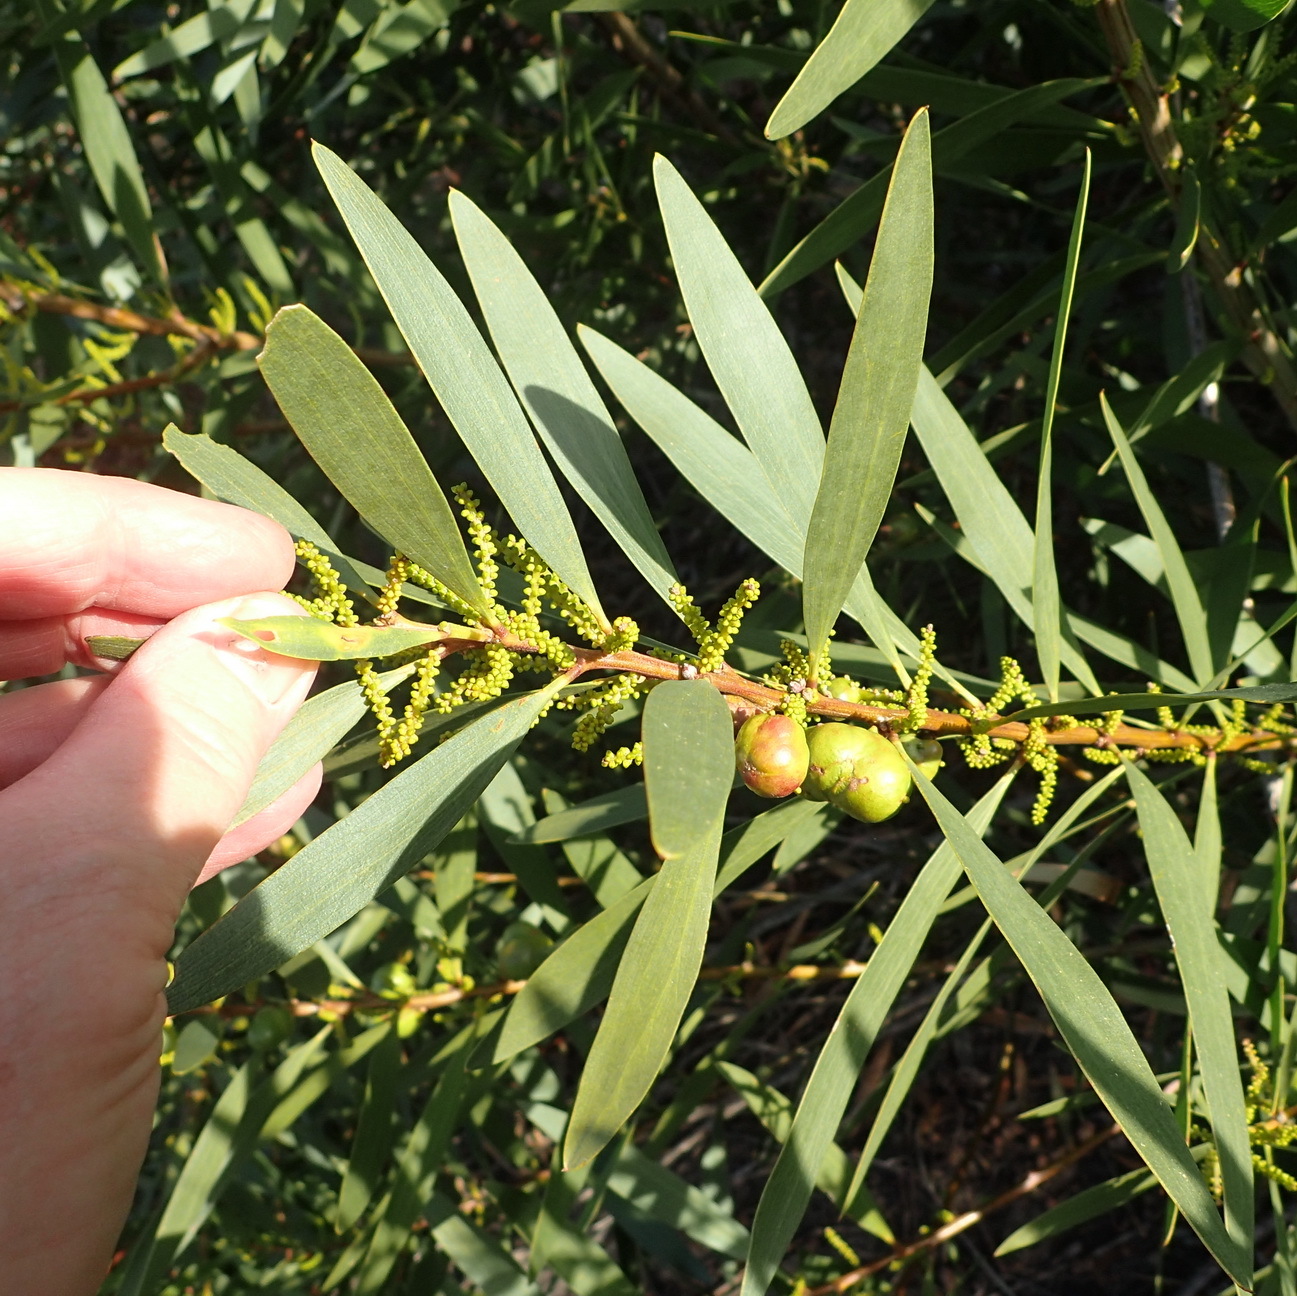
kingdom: Plantae
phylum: Tracheophyta
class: Magnoliopsida
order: Fabales
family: Fabaceae
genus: Acacia
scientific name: Acacia longifolia
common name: Sydney golden wattle
